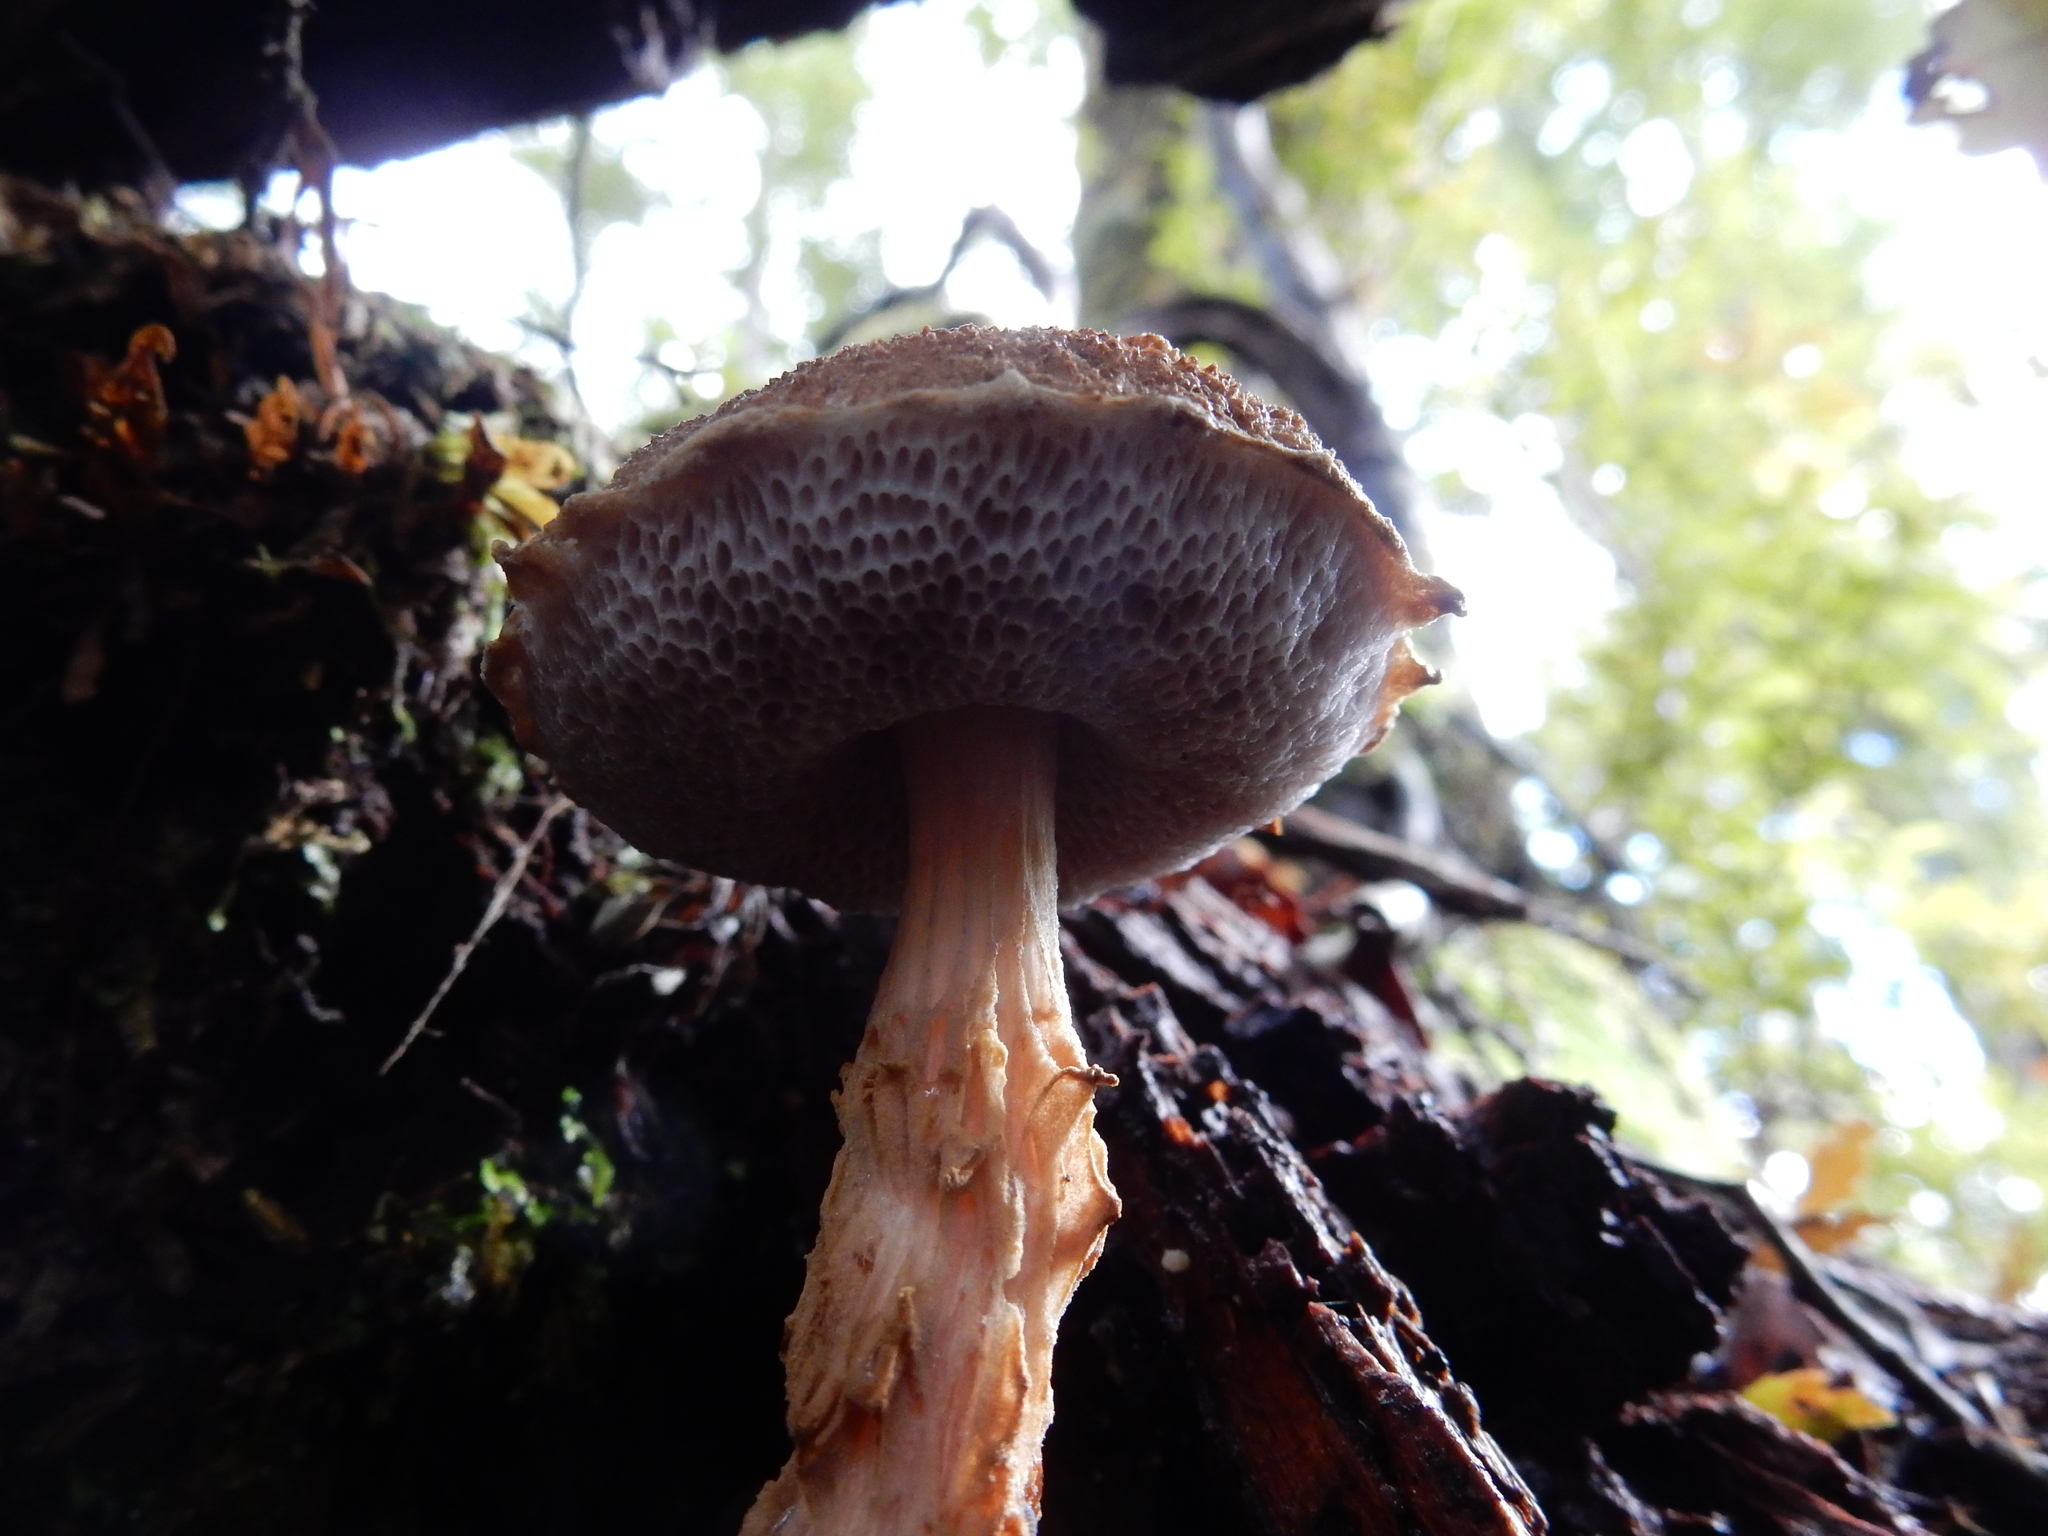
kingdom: Fungi
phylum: Basidiomycota
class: Agaricomycetes
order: Boletales
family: Boletaceae
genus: Austroboletus
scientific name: Austroboletus lacunosus
